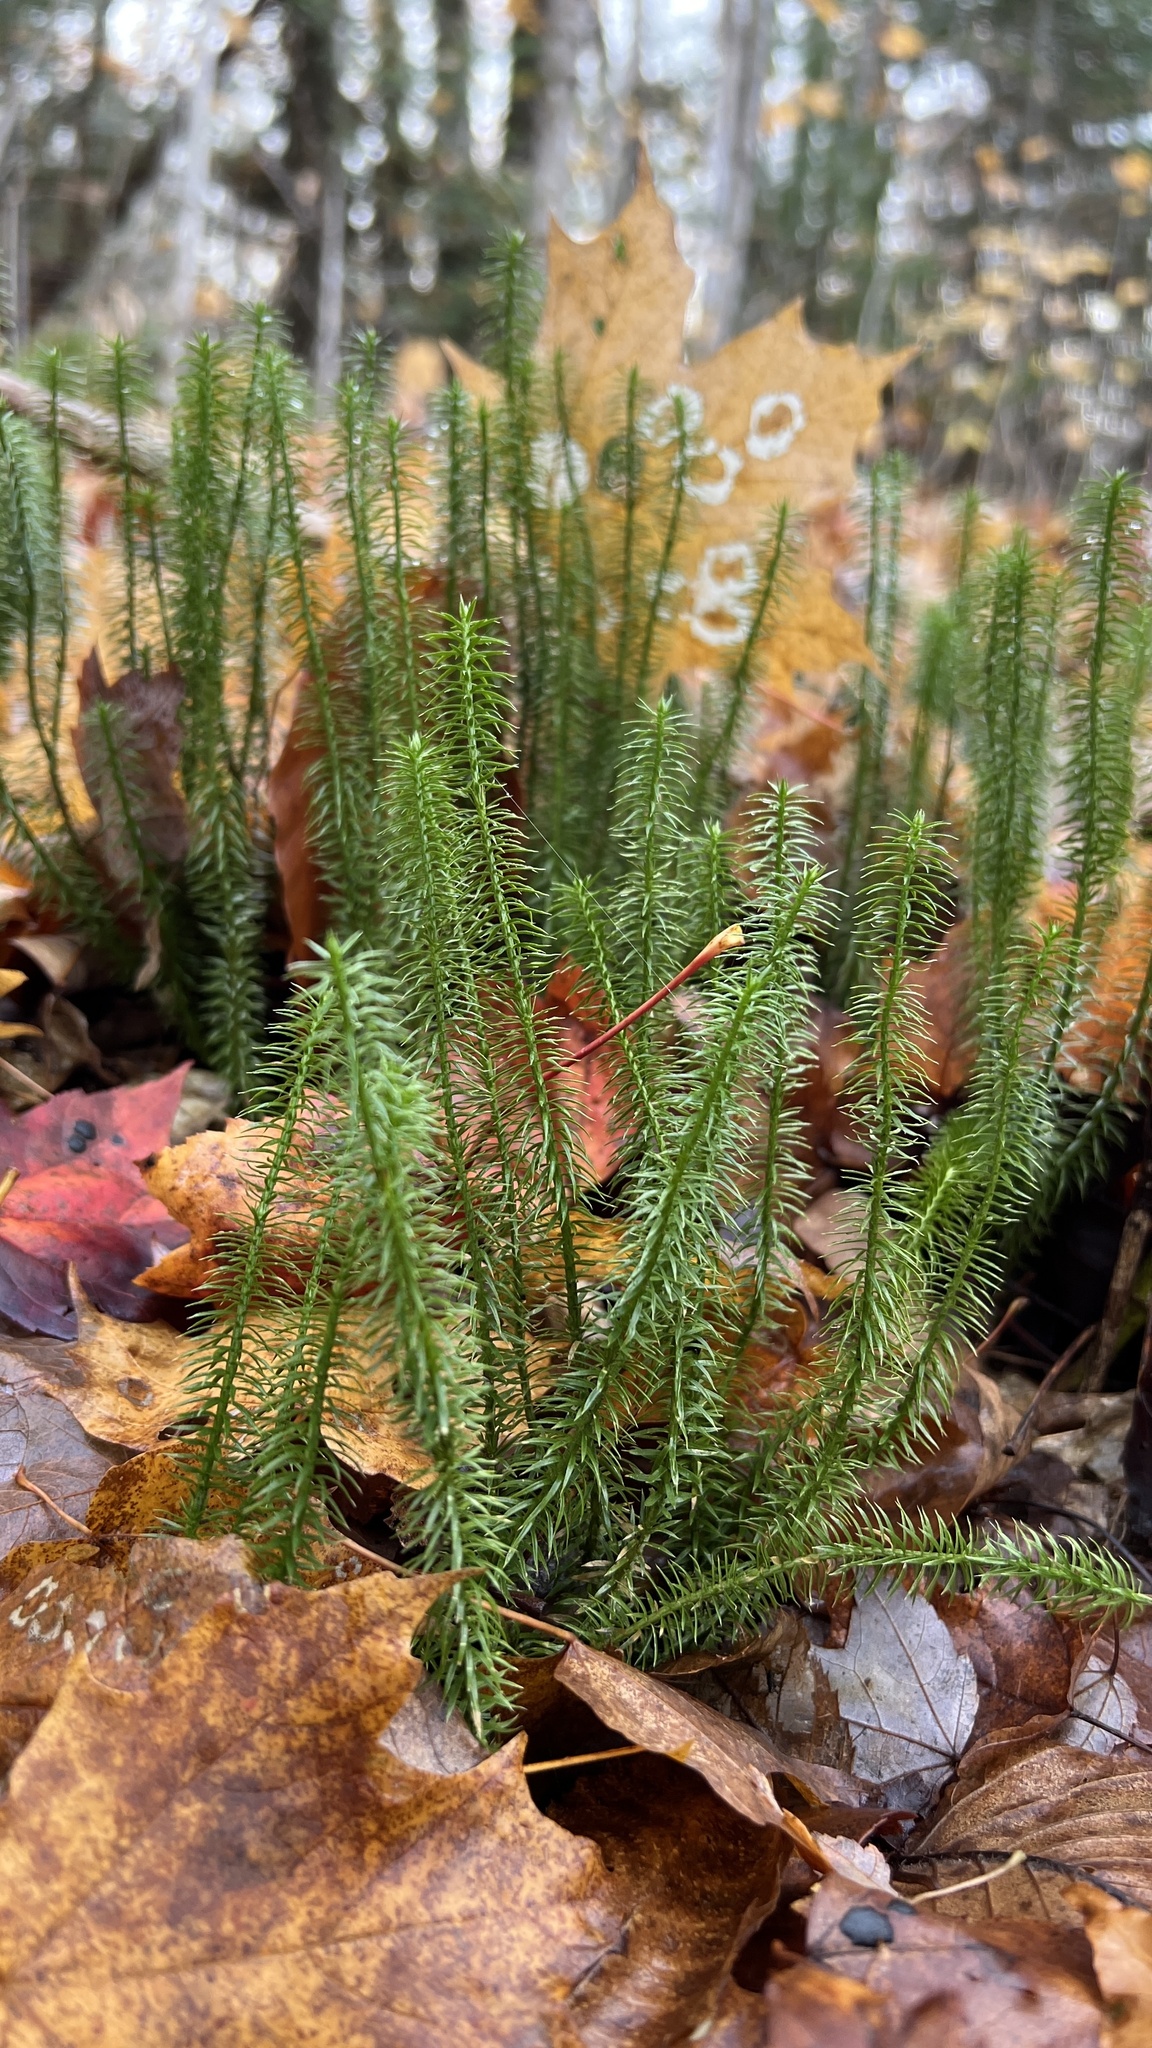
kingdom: Plantae
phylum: Tracheophyta
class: Lycopodiopsida
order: Lycopodiales
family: Lycopodiaceae
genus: Spinulum
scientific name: Spinulum annotinum
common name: Interrupted club-moss
